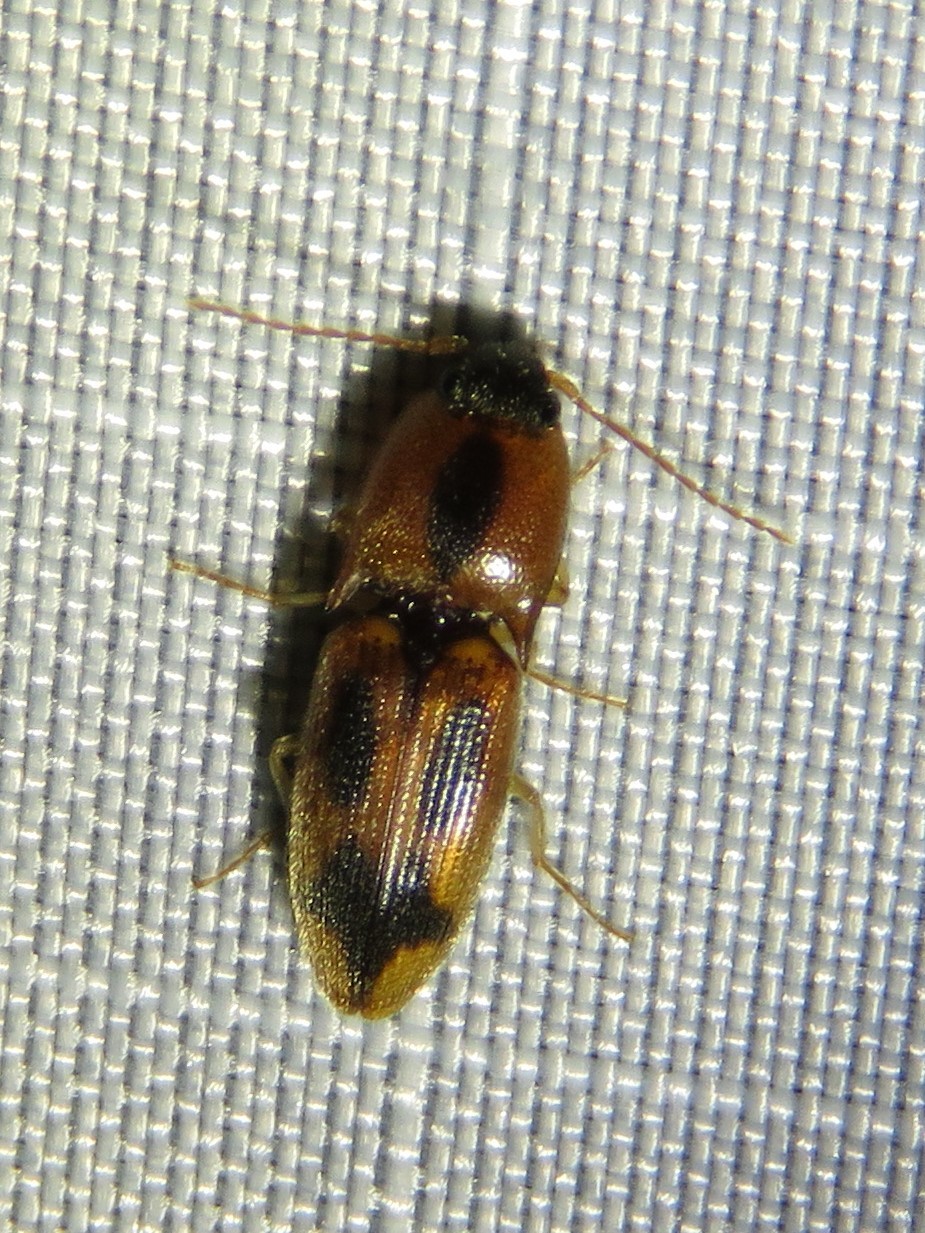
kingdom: Animalia
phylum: Arthropoda
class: Insecta
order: Coleoptera
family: Elateridae
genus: Aeolus
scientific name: Aeolus mellillus
